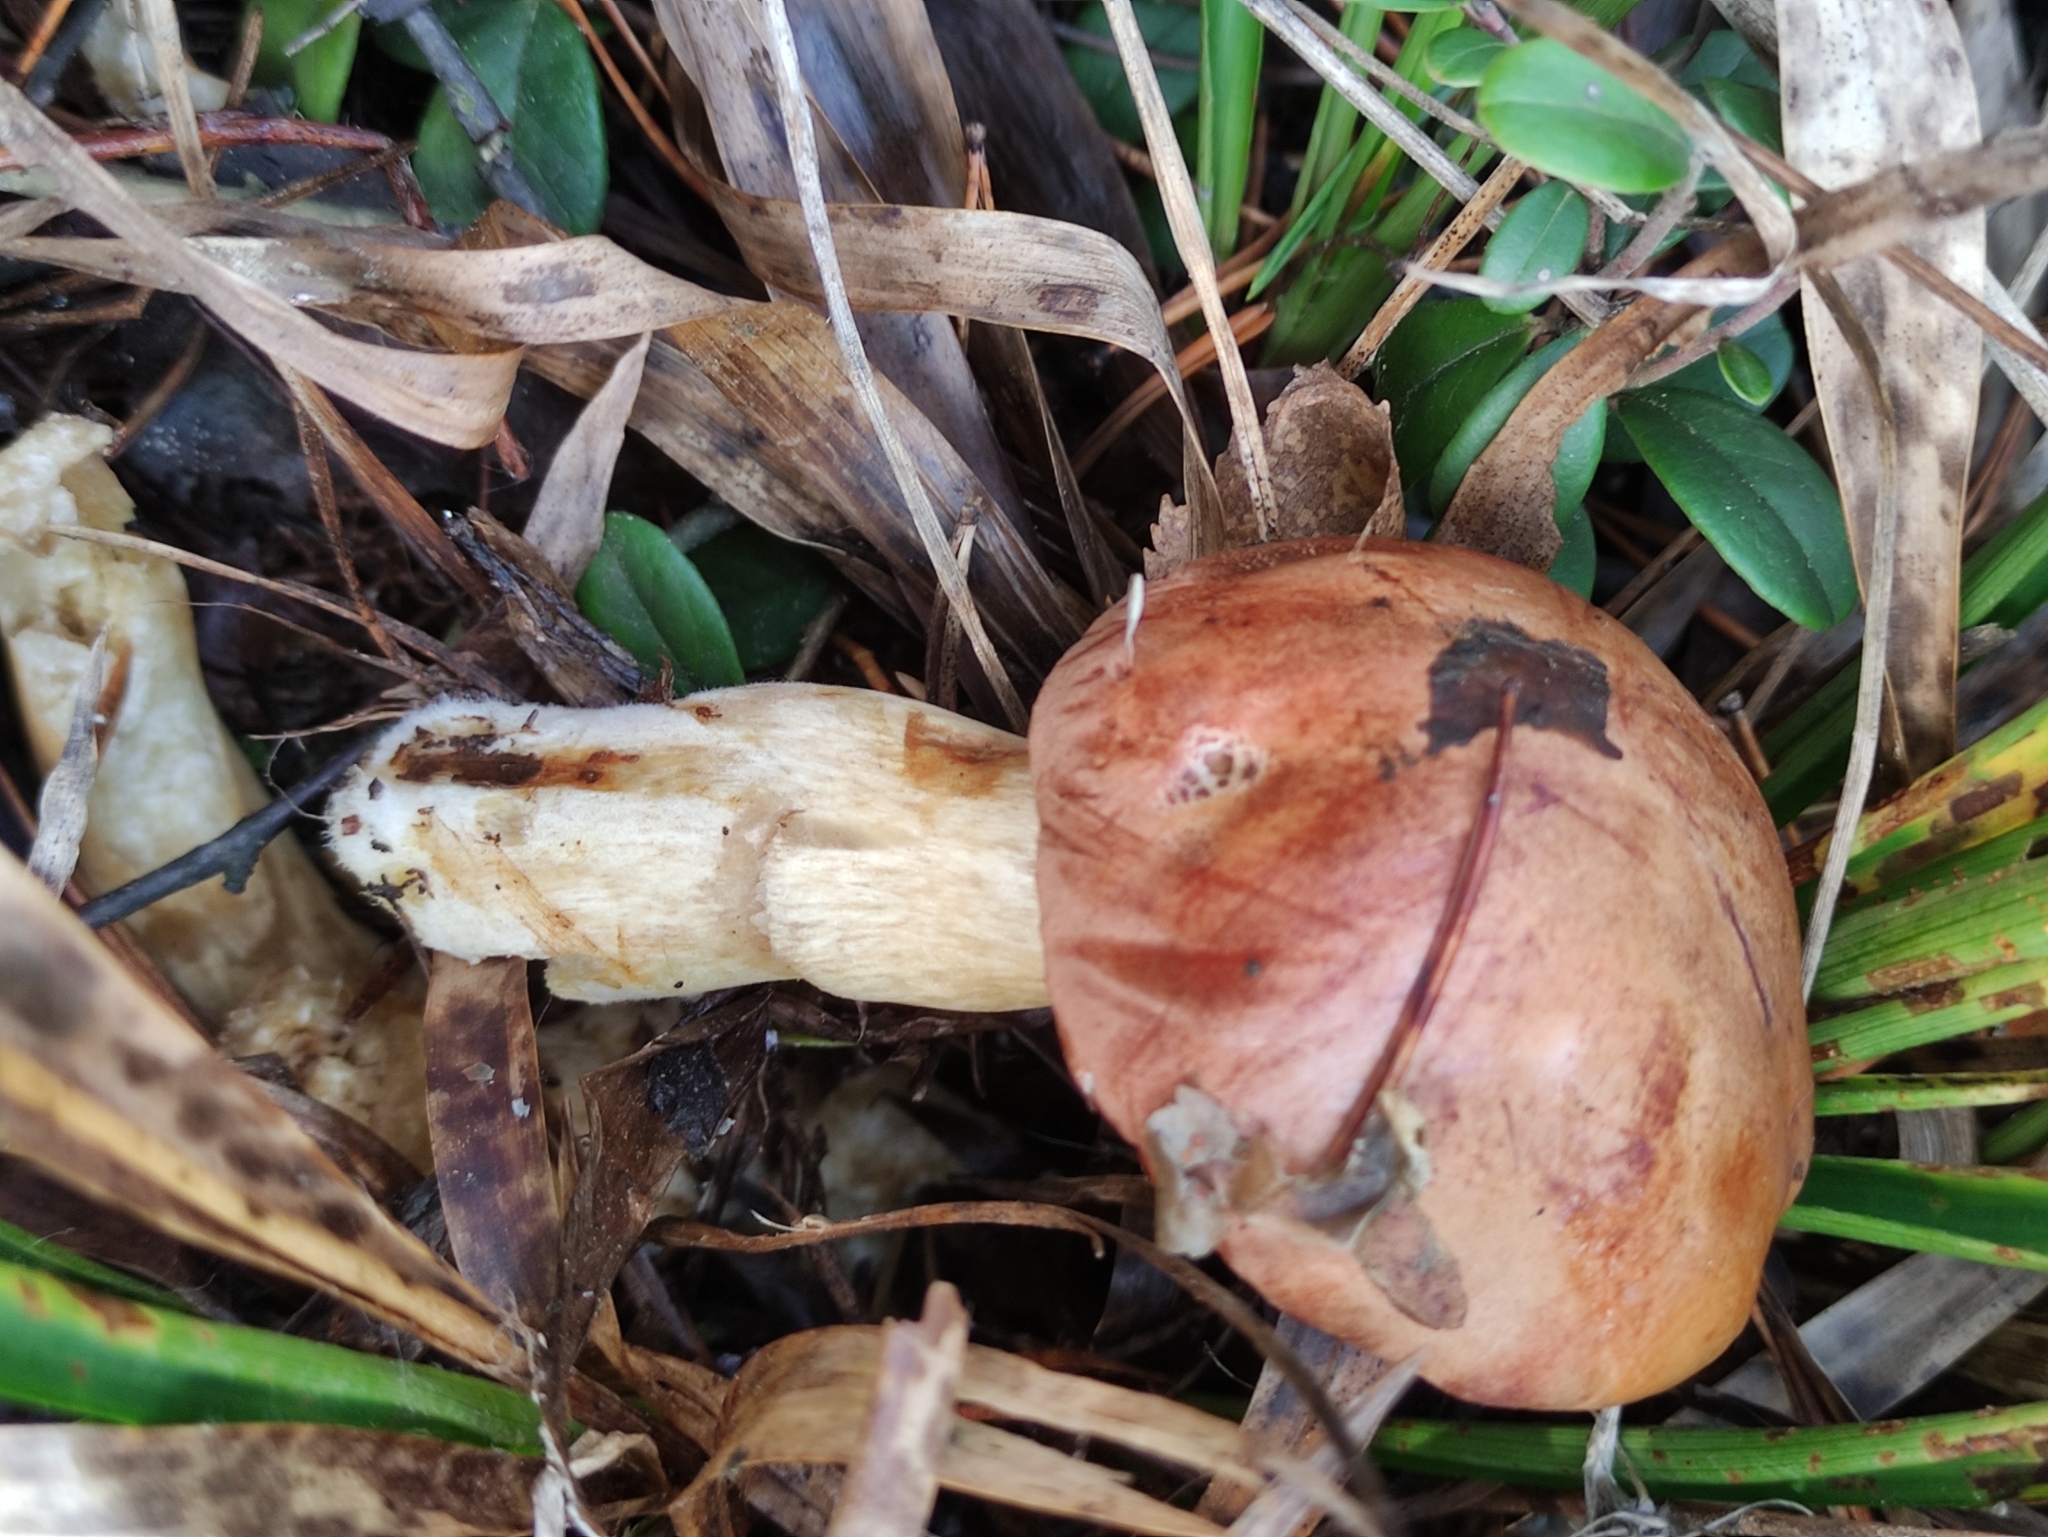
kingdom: Fungi
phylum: Basidiomycota
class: Agaricomycetes
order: Boletales
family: Boletaceae
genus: Imleria
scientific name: Imleria badia
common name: Bay bolete
